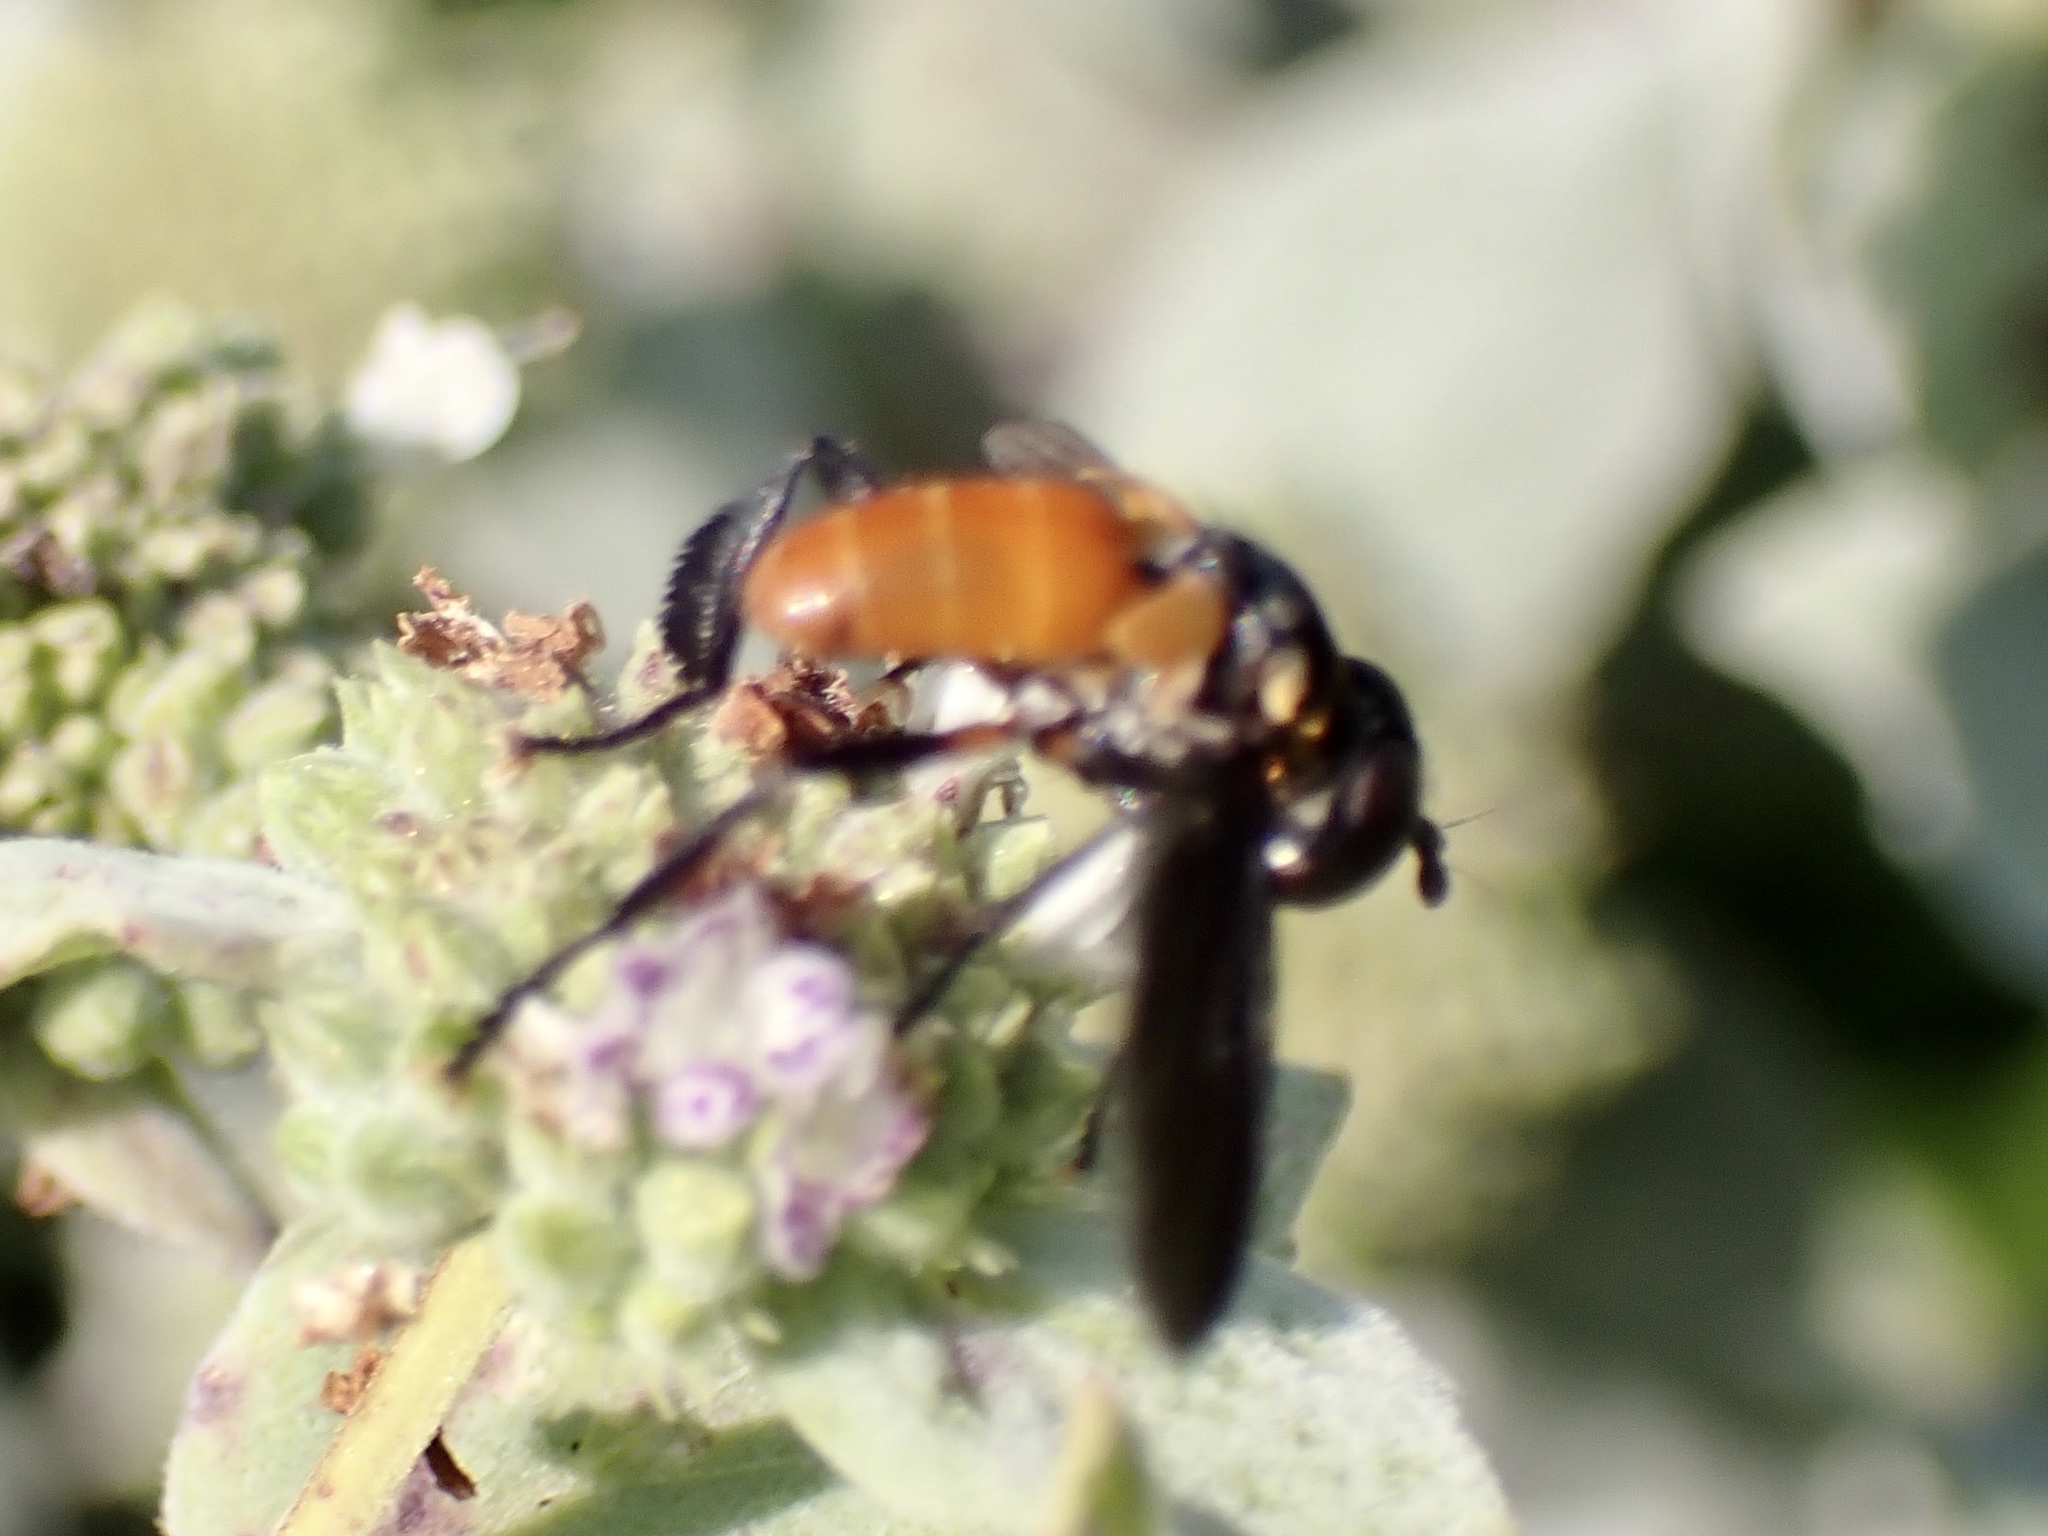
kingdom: Animalia
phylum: Arthropoda
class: Insecta
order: Diptera
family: Tachinidae
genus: Trichopoda
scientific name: Trichopoda pennipes
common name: Tachinid fly
